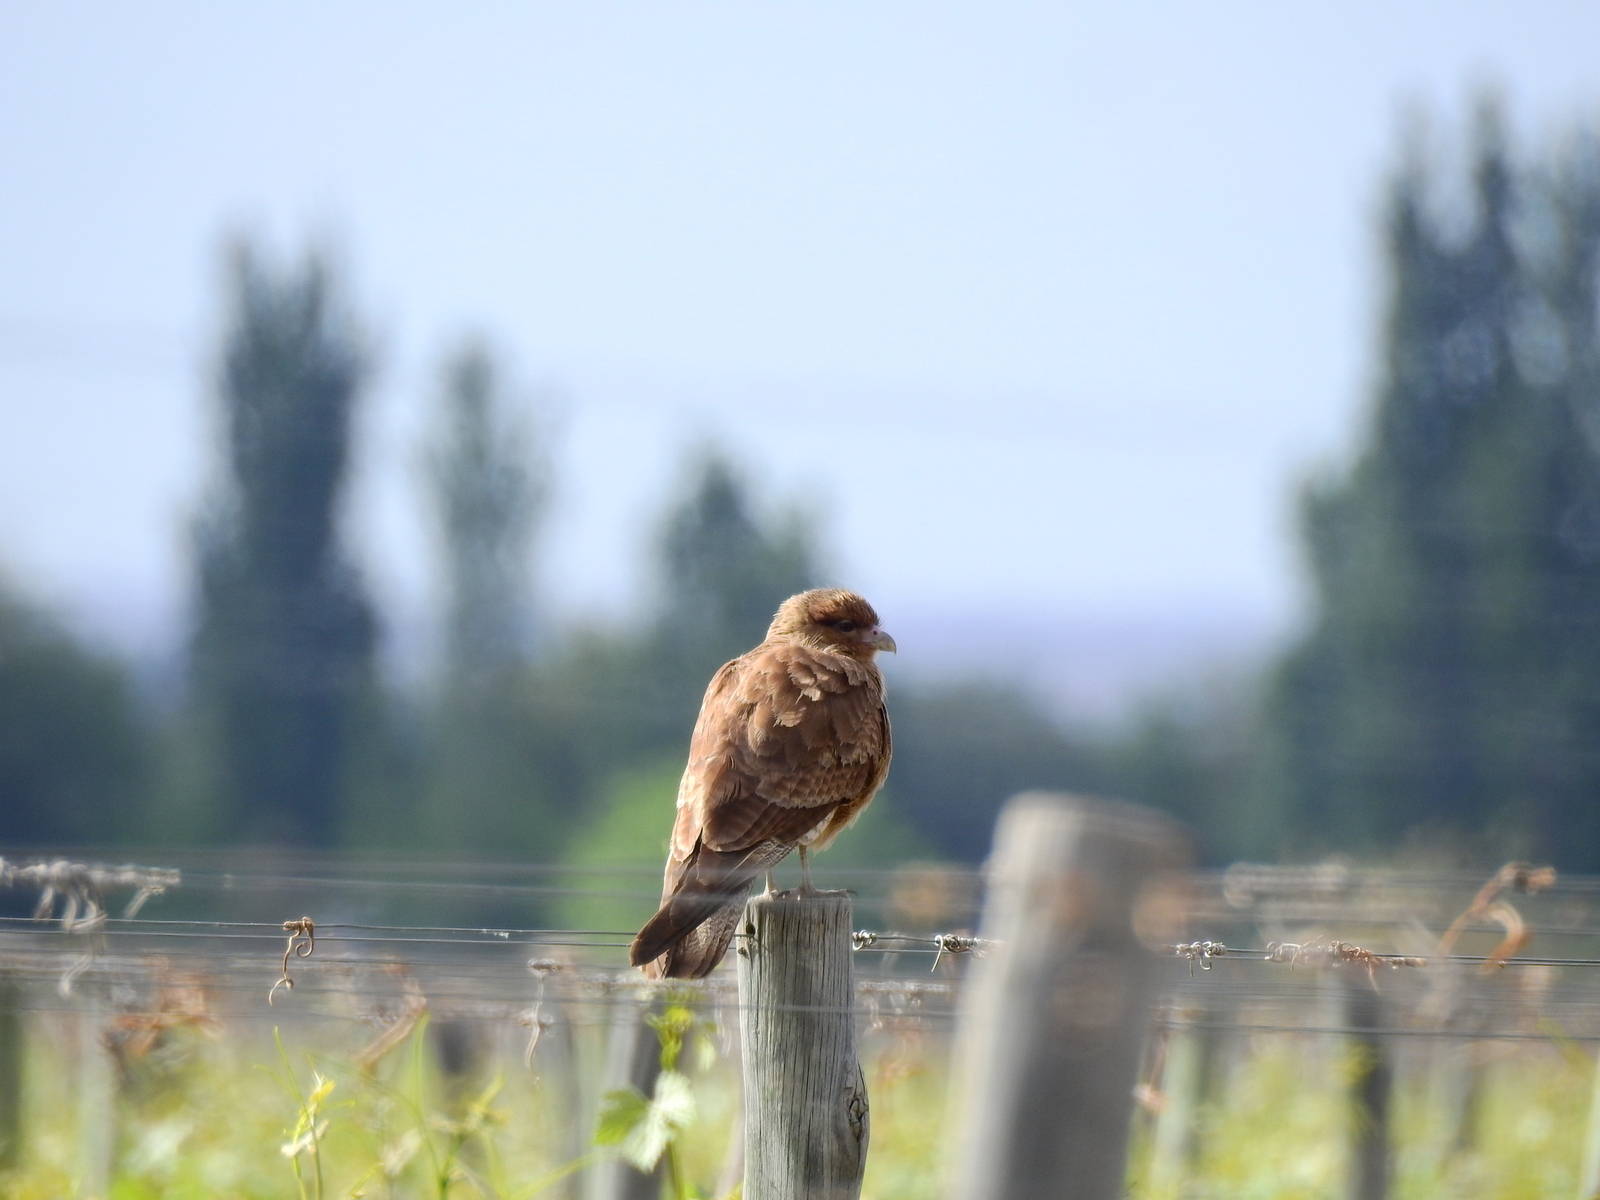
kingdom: Animalia
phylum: Chordata
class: Aves
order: Falconiformes
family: Falconidae
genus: Daptrius
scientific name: Daptrius
